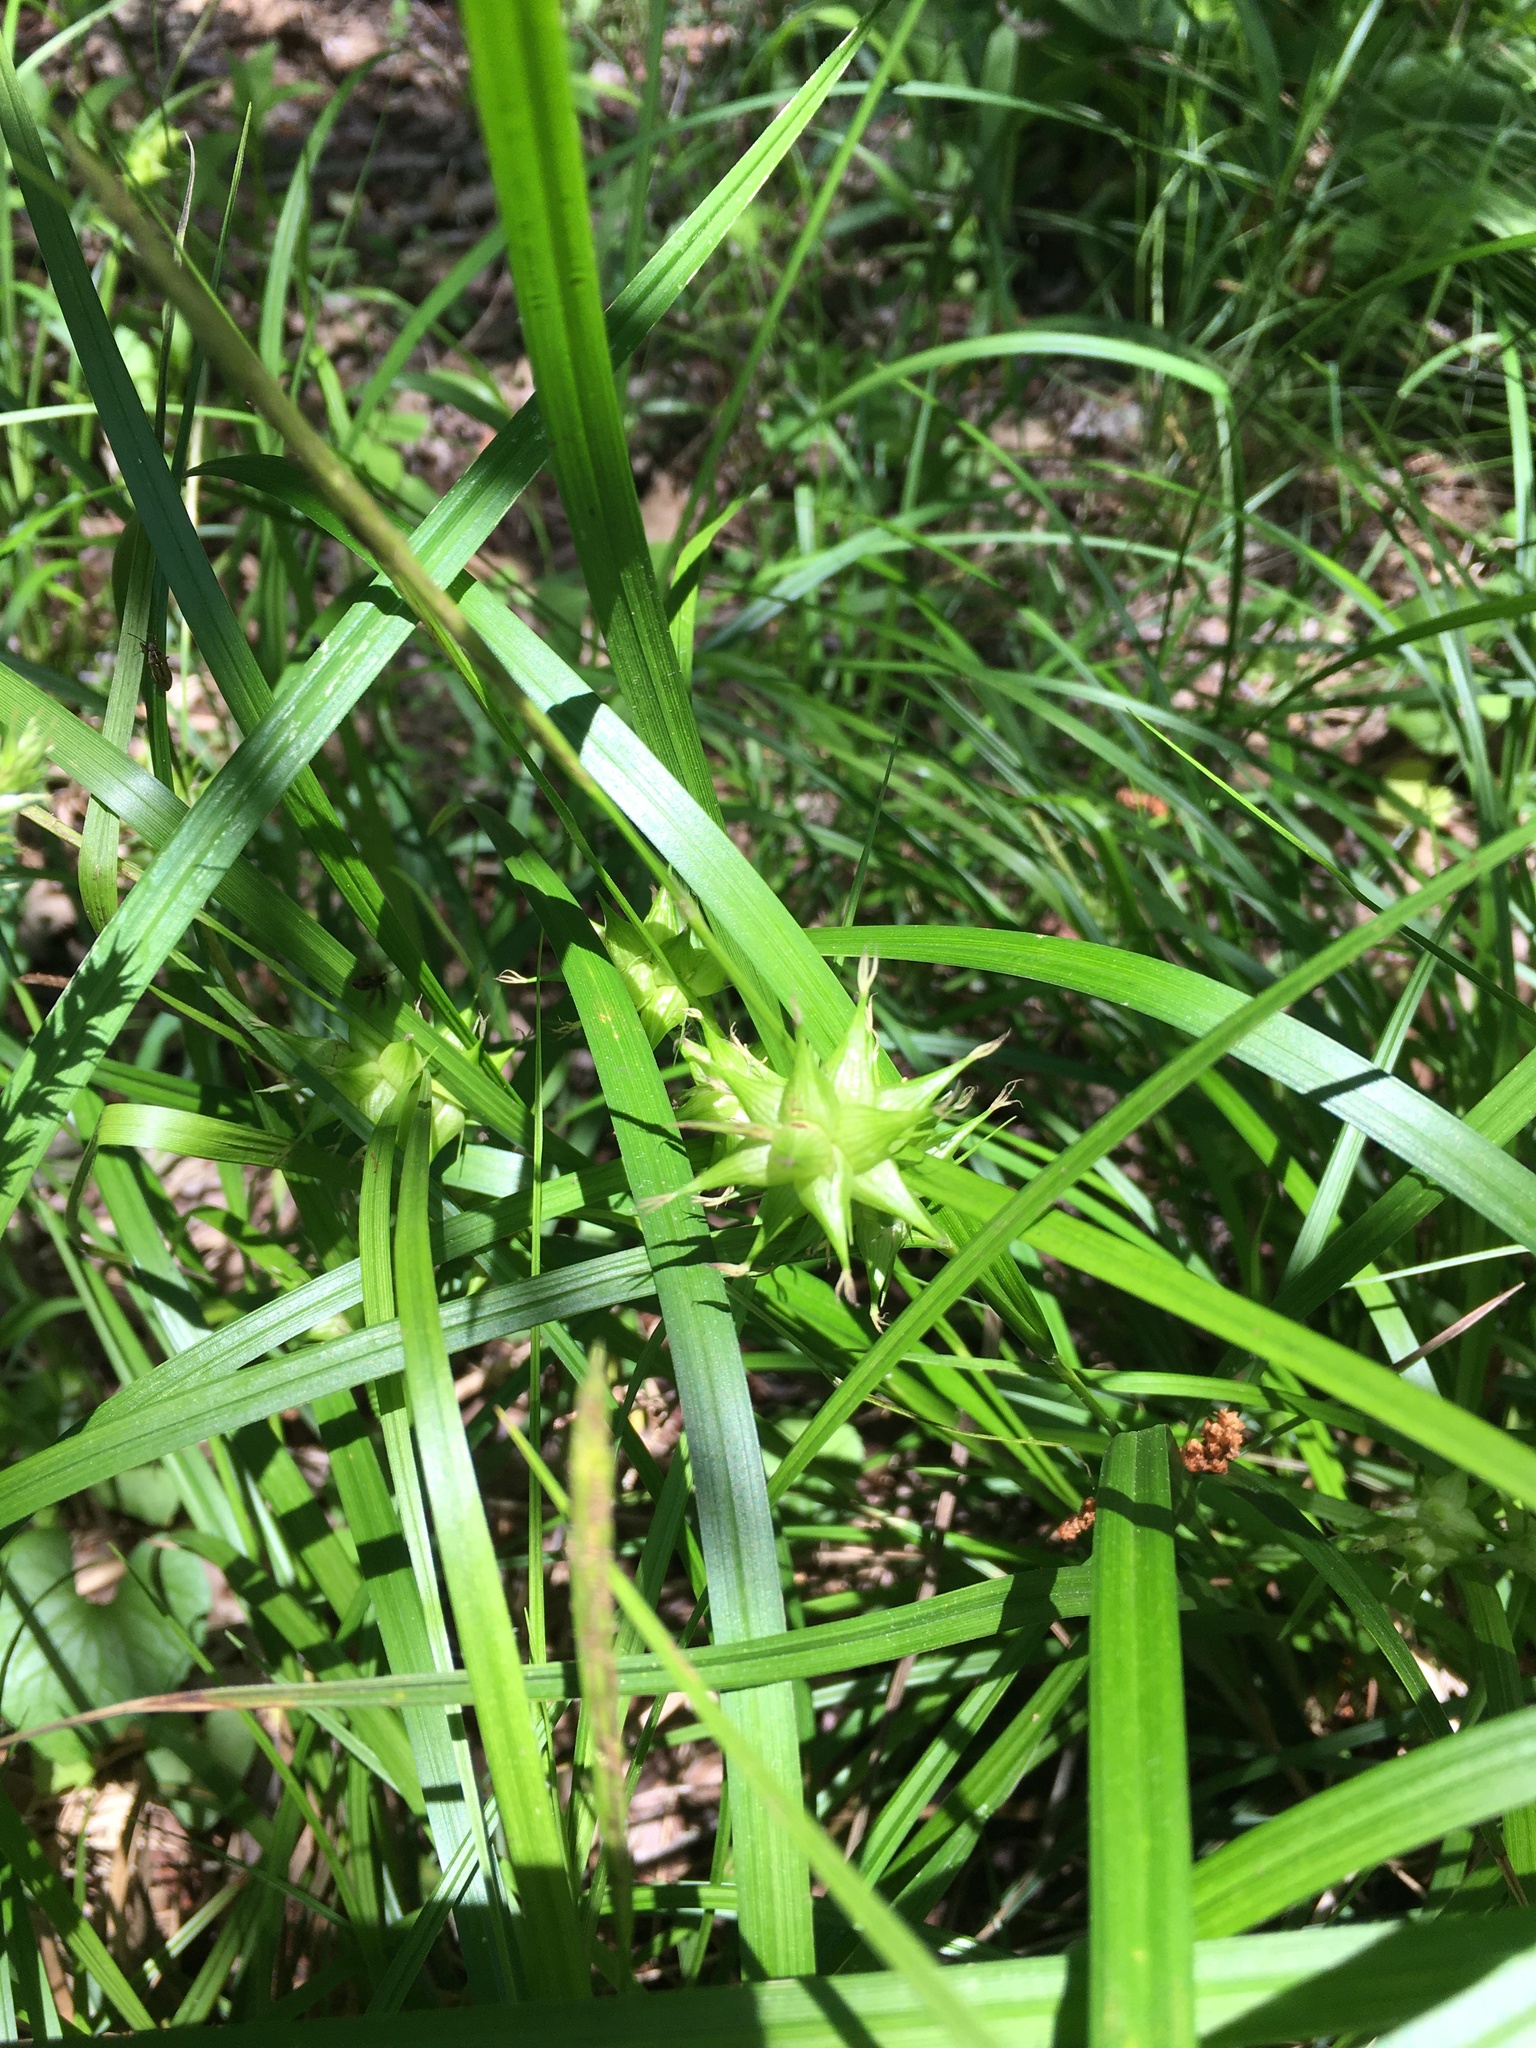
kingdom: Plantae
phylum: Tracheophyta
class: Liliopsida
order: Poales
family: Cyperaceae
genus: Carex
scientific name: Carex intumescens
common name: Greater bladder sedge
